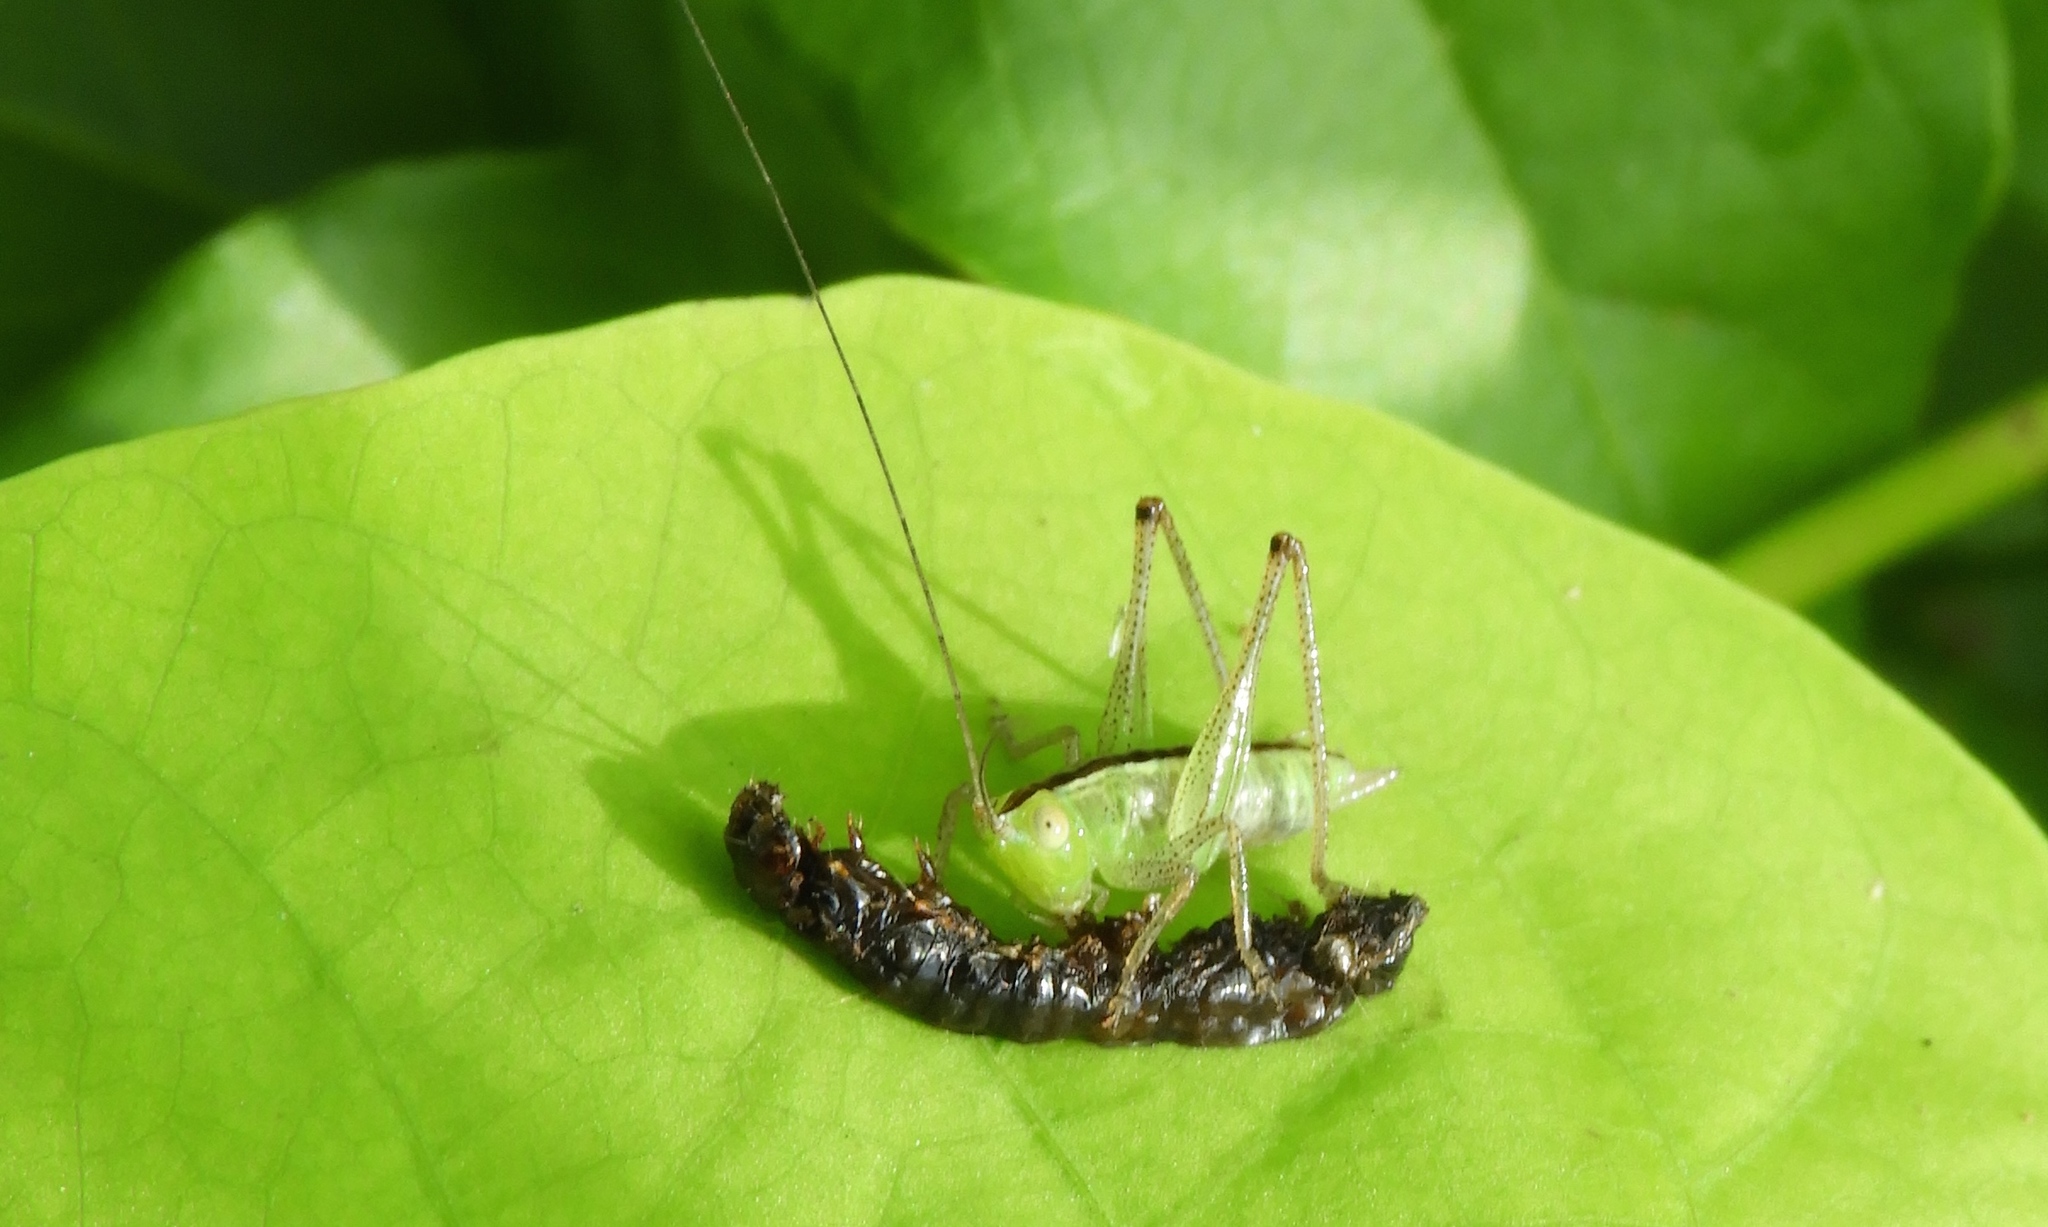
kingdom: Animalia
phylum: Arthropoda
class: Insecta
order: Orthoptera
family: Tettigoniidae
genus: Conocephalus
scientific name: Conocephalus
